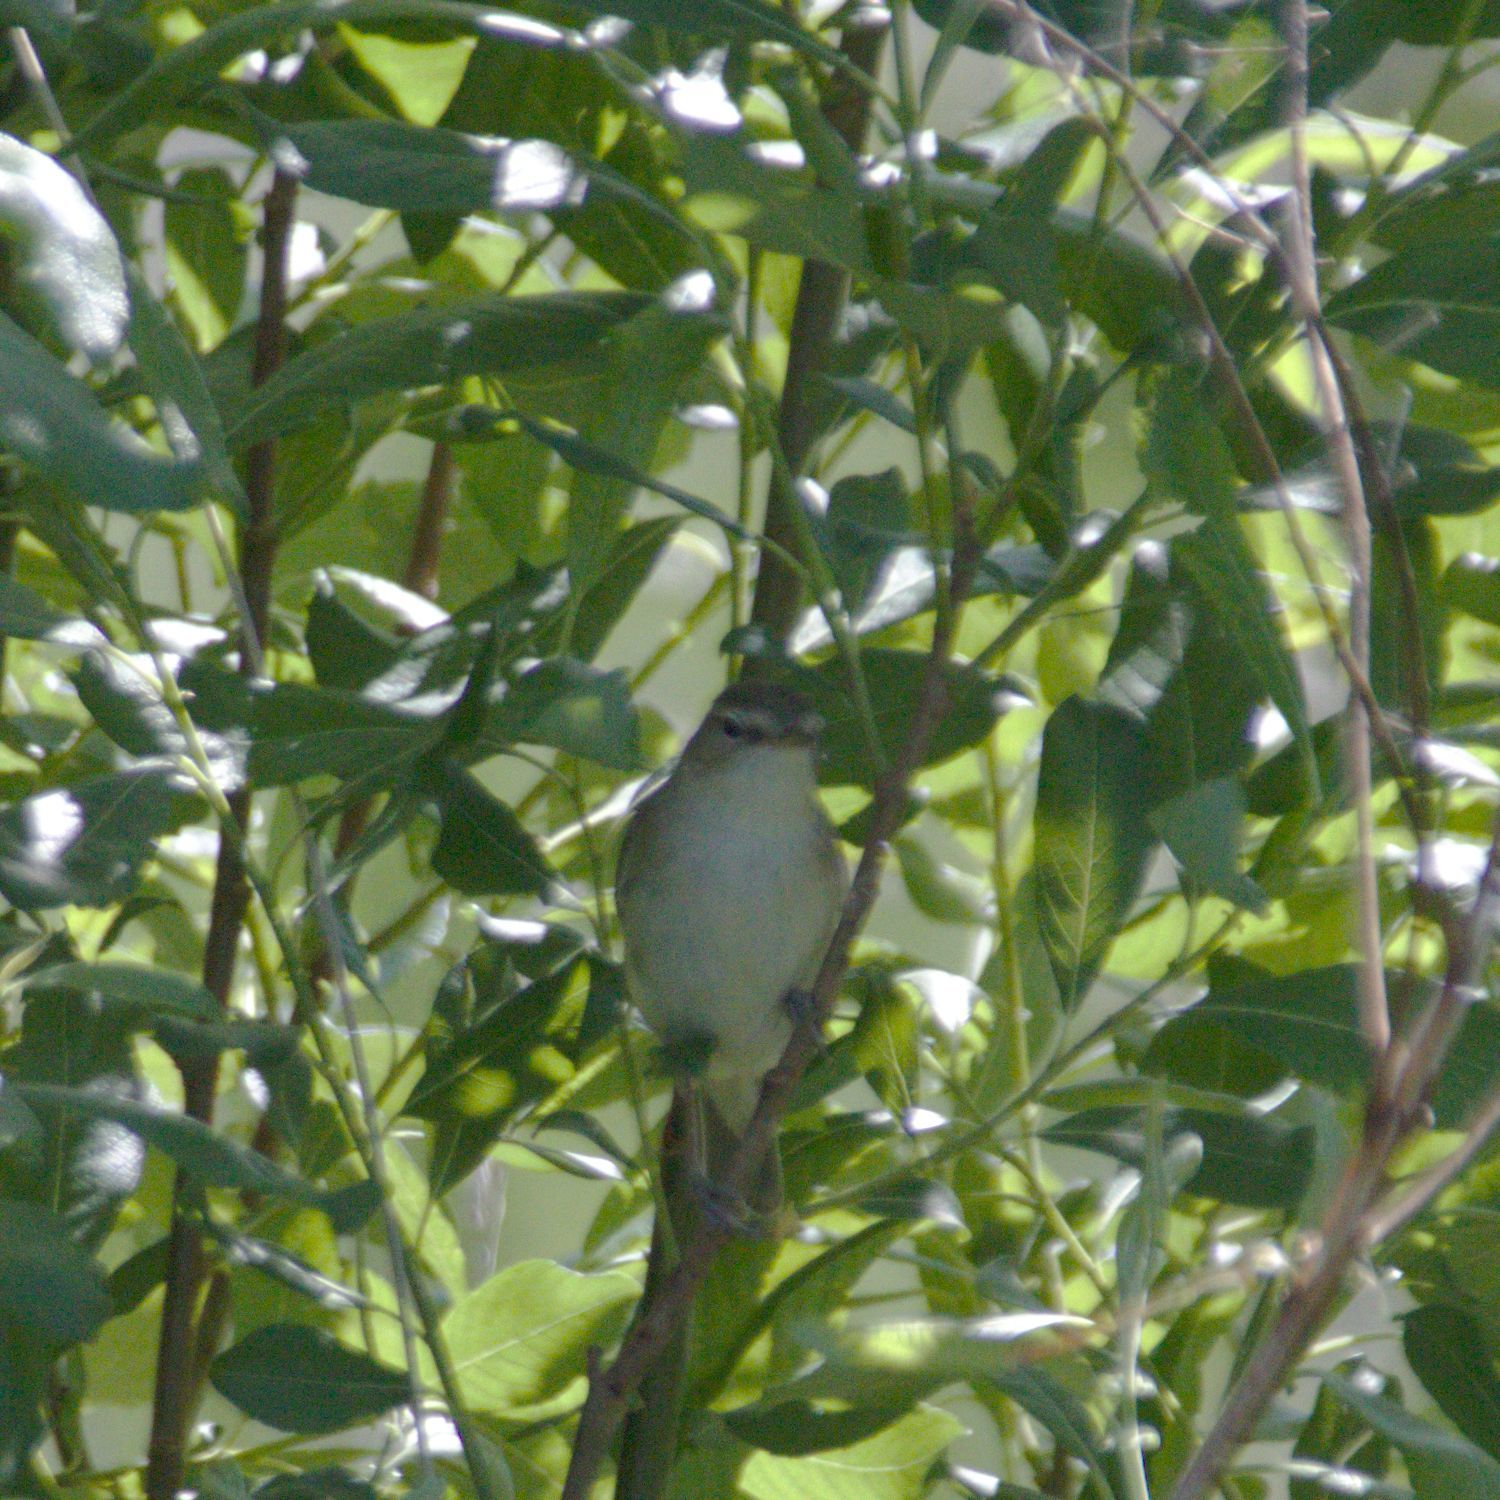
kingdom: Animalia
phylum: Chordata
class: Aves
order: Passeriformes
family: Acrocephalidae
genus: Iduna
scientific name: Iduna caligata
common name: Booted warbler
